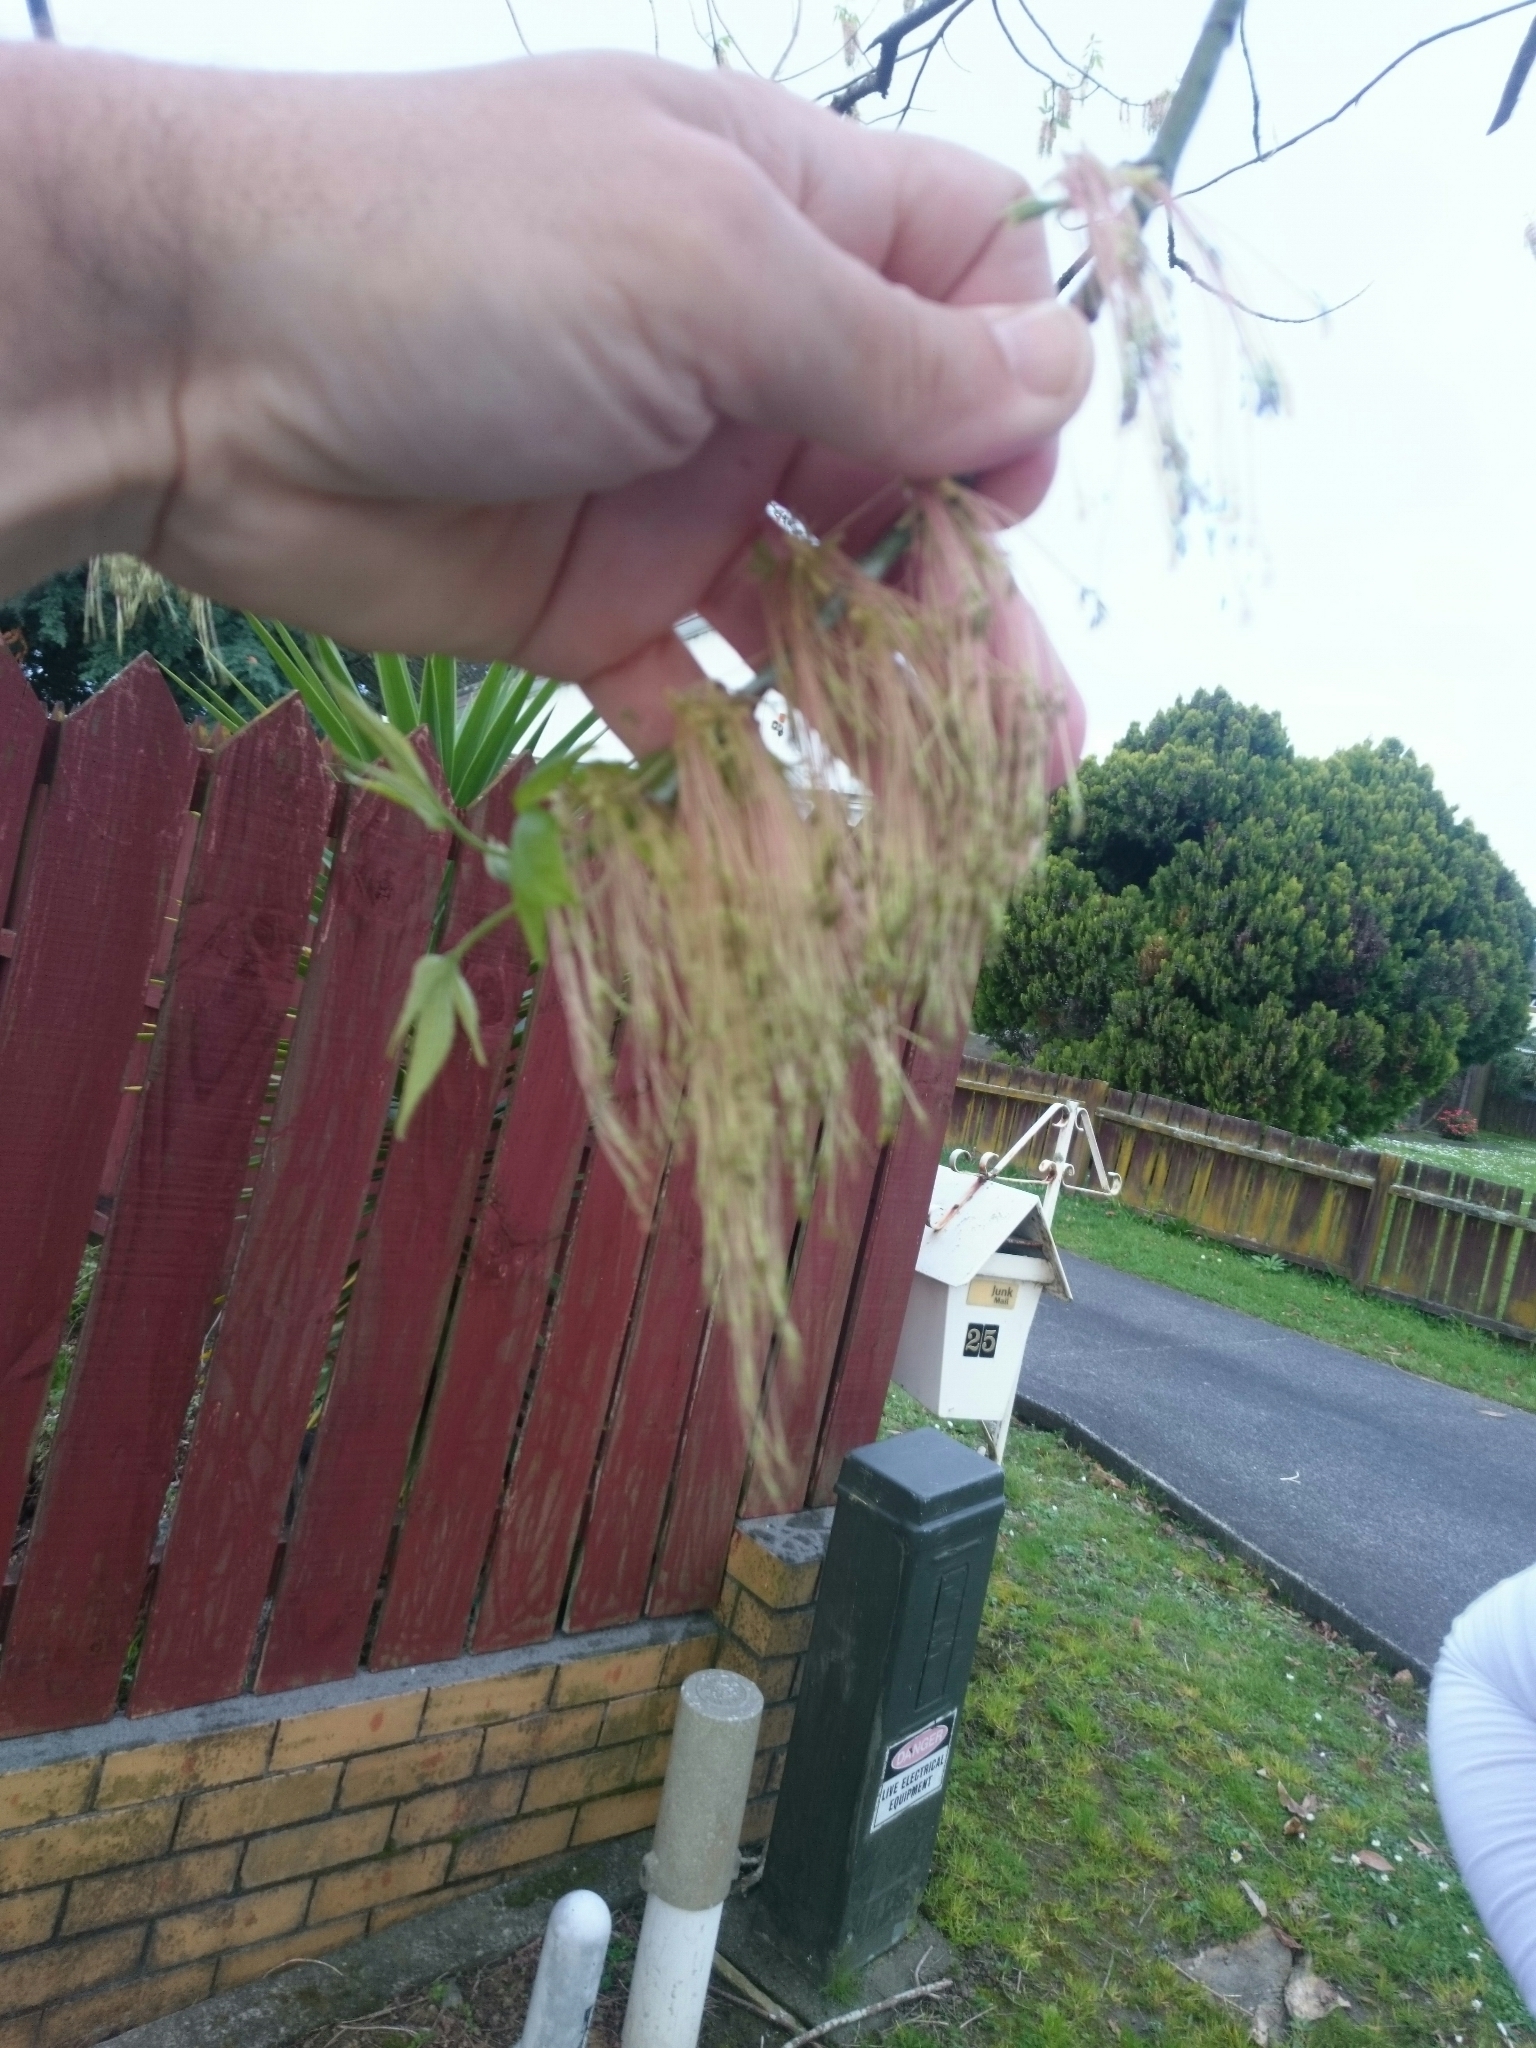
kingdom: Plantae
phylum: Tracheophyta
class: Magnoliopsida
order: Sapindales
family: Sapindaceae
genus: Acer
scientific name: Acer negundo
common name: Ashleaf maple
